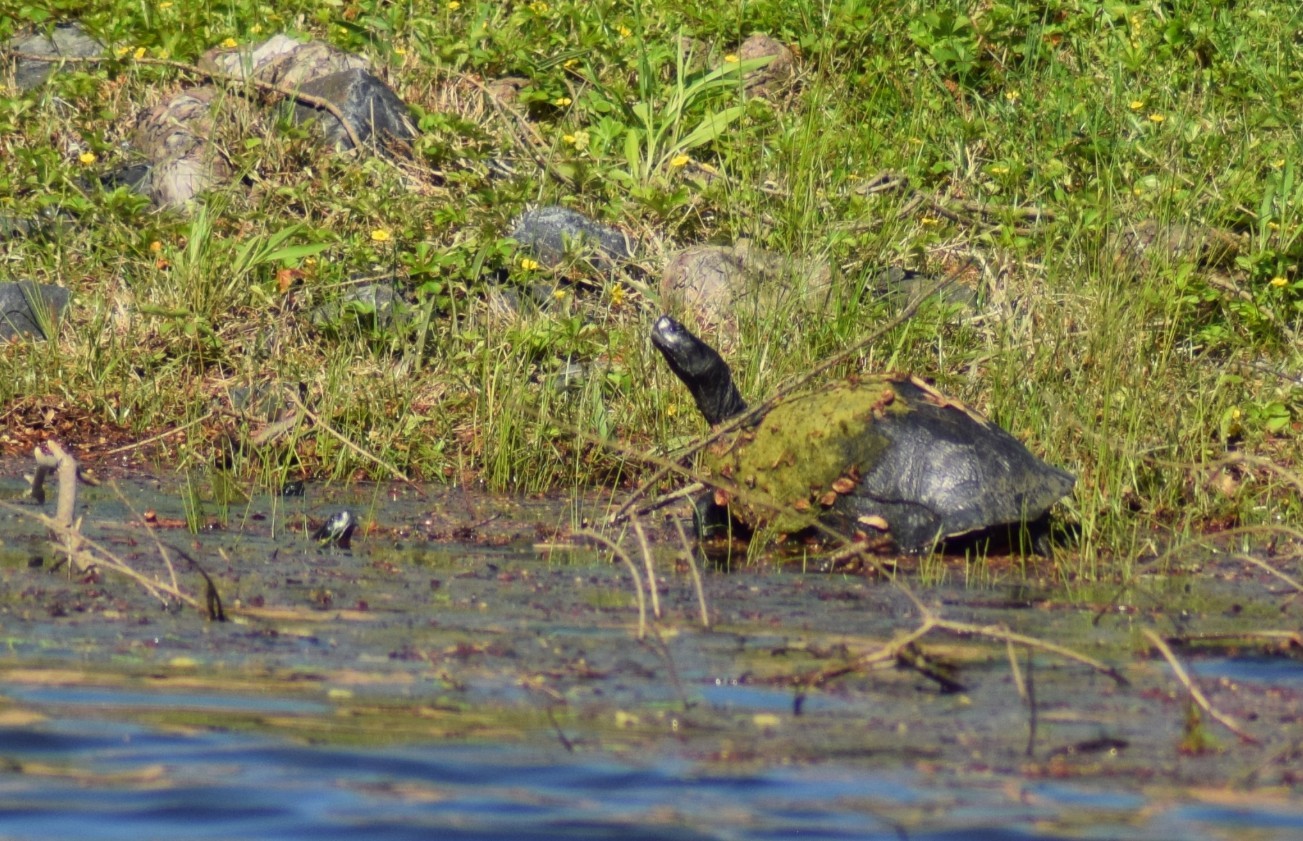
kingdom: Animalia
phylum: Chordata
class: Testudines
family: Emydidae
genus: Pseudemys
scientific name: Pseudemys rubriventris
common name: American red-bellied turtle
